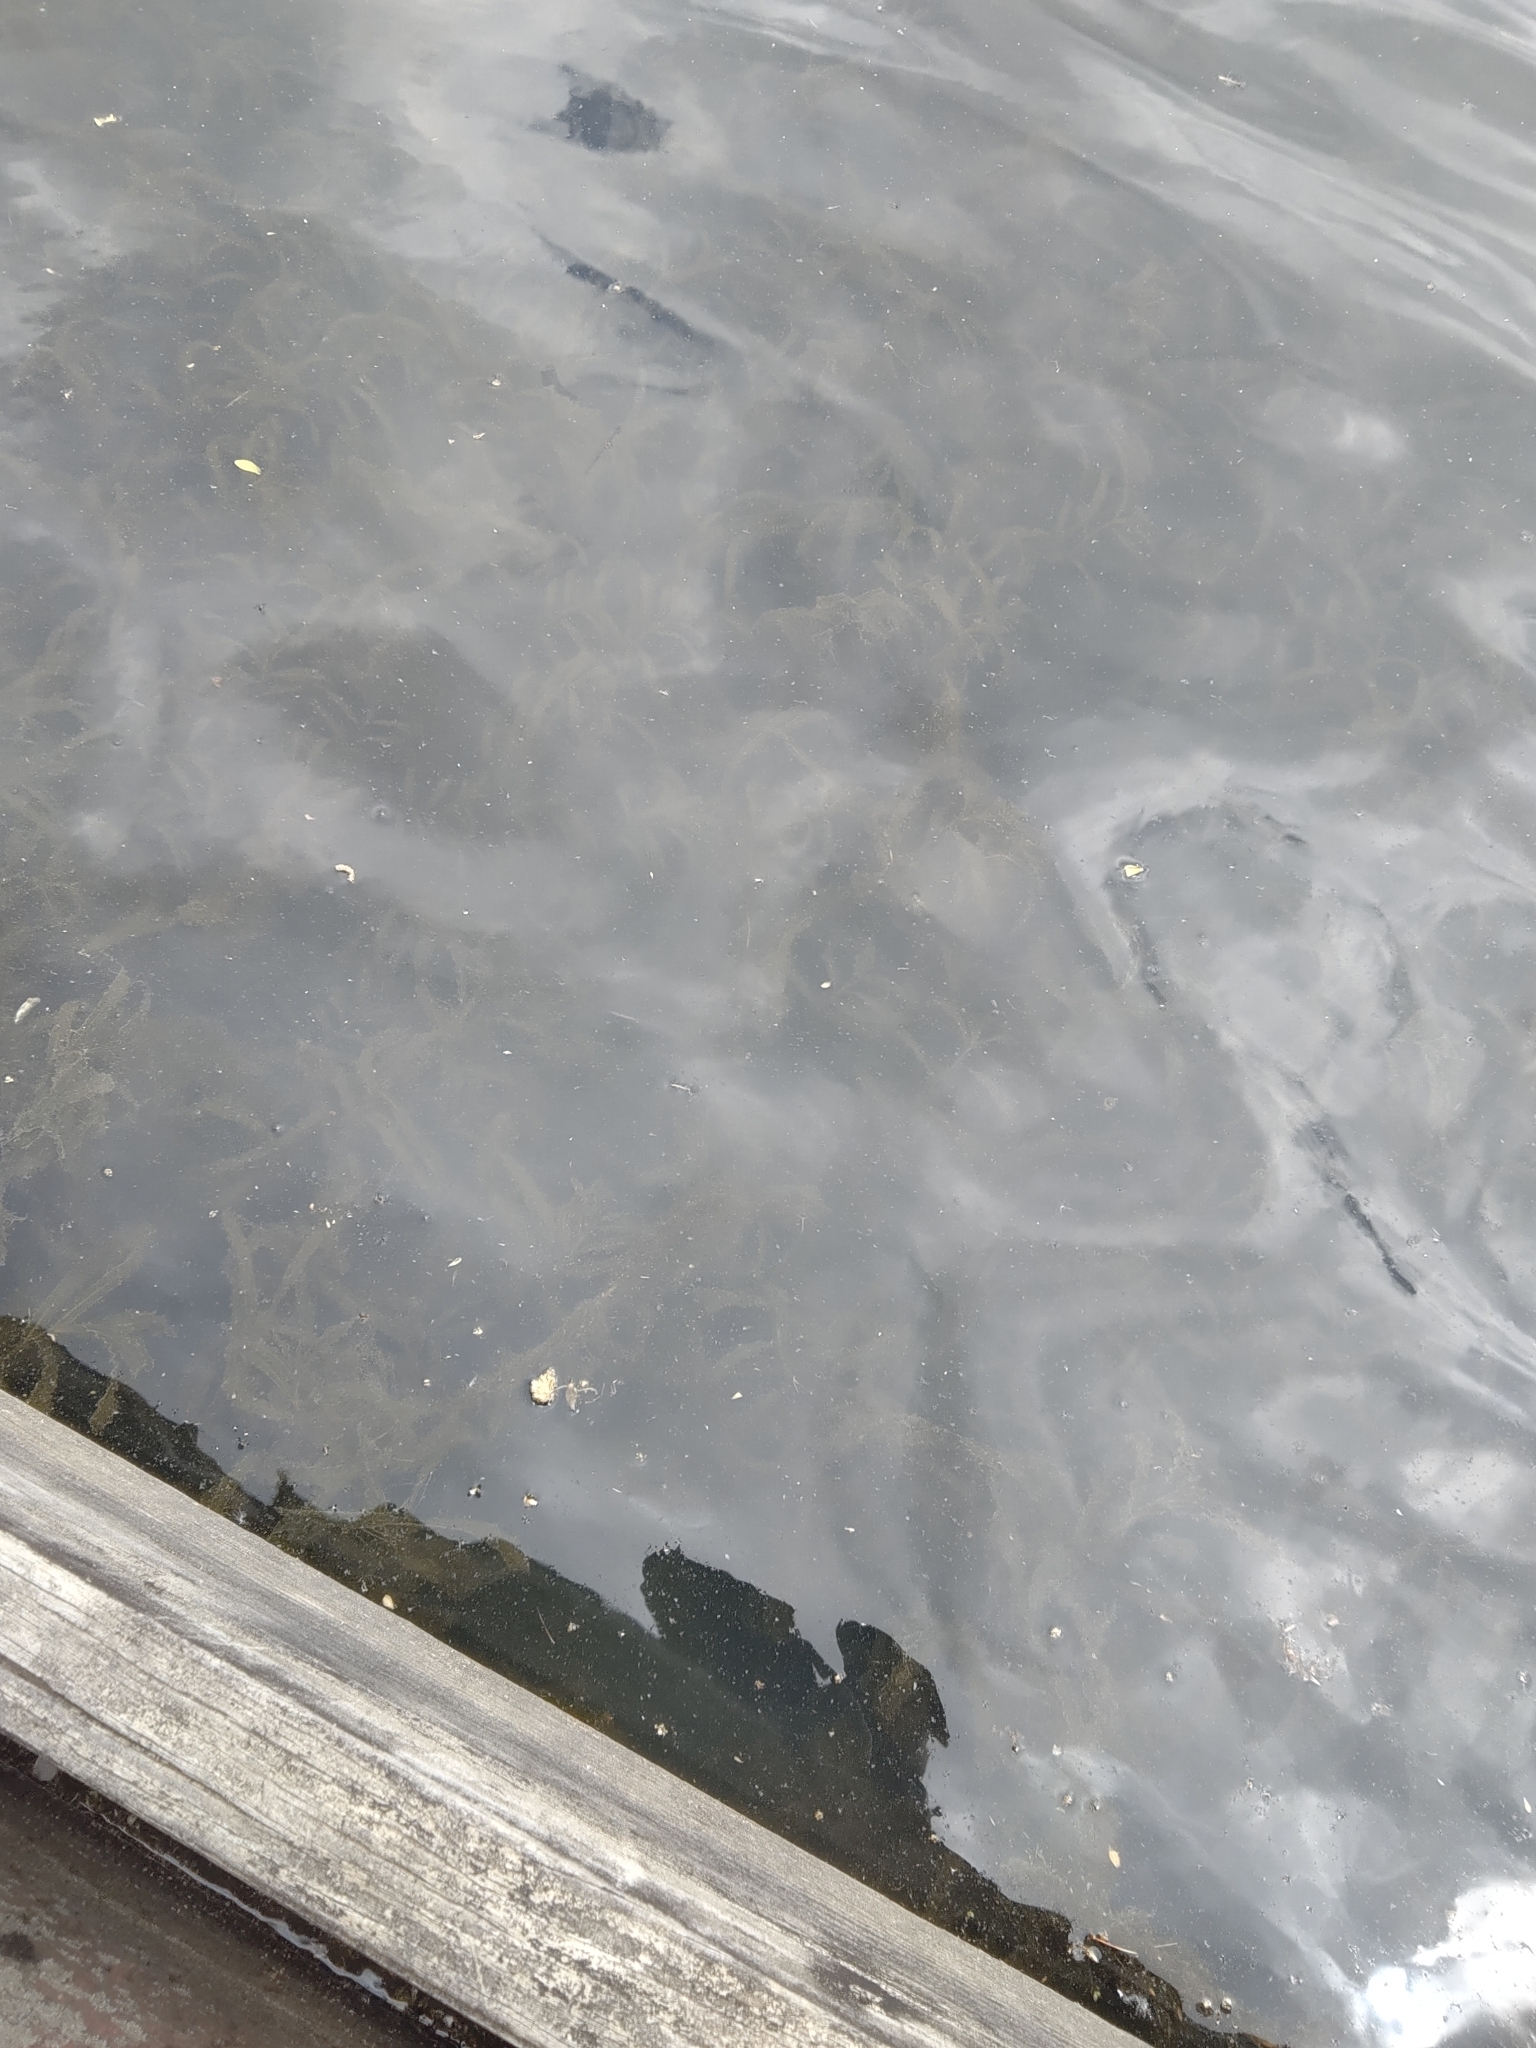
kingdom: Plantae
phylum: Tracheophyta
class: Liliopsida
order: Alismatales
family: Potamogetonaceae
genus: Potamogeton
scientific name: Potamogeton crispus
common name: Curled pondweed
